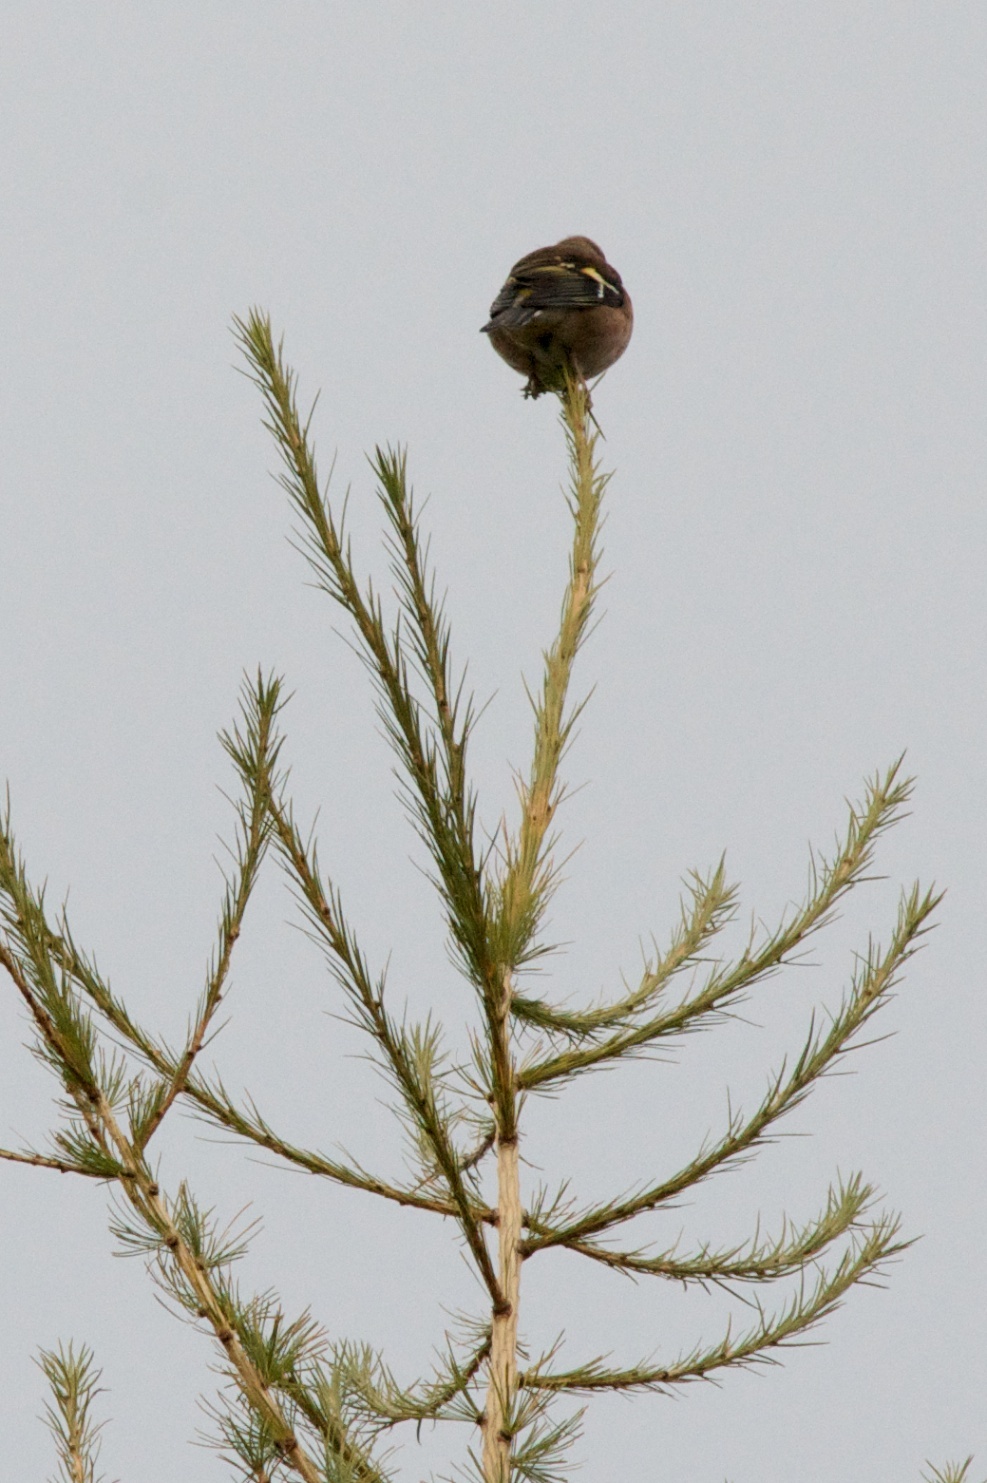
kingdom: Animalia
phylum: Chordata
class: Aves
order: Passeriformes
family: Fringillidae
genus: Fringilla
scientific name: Fringilla coelebs
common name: Common chaffinch
